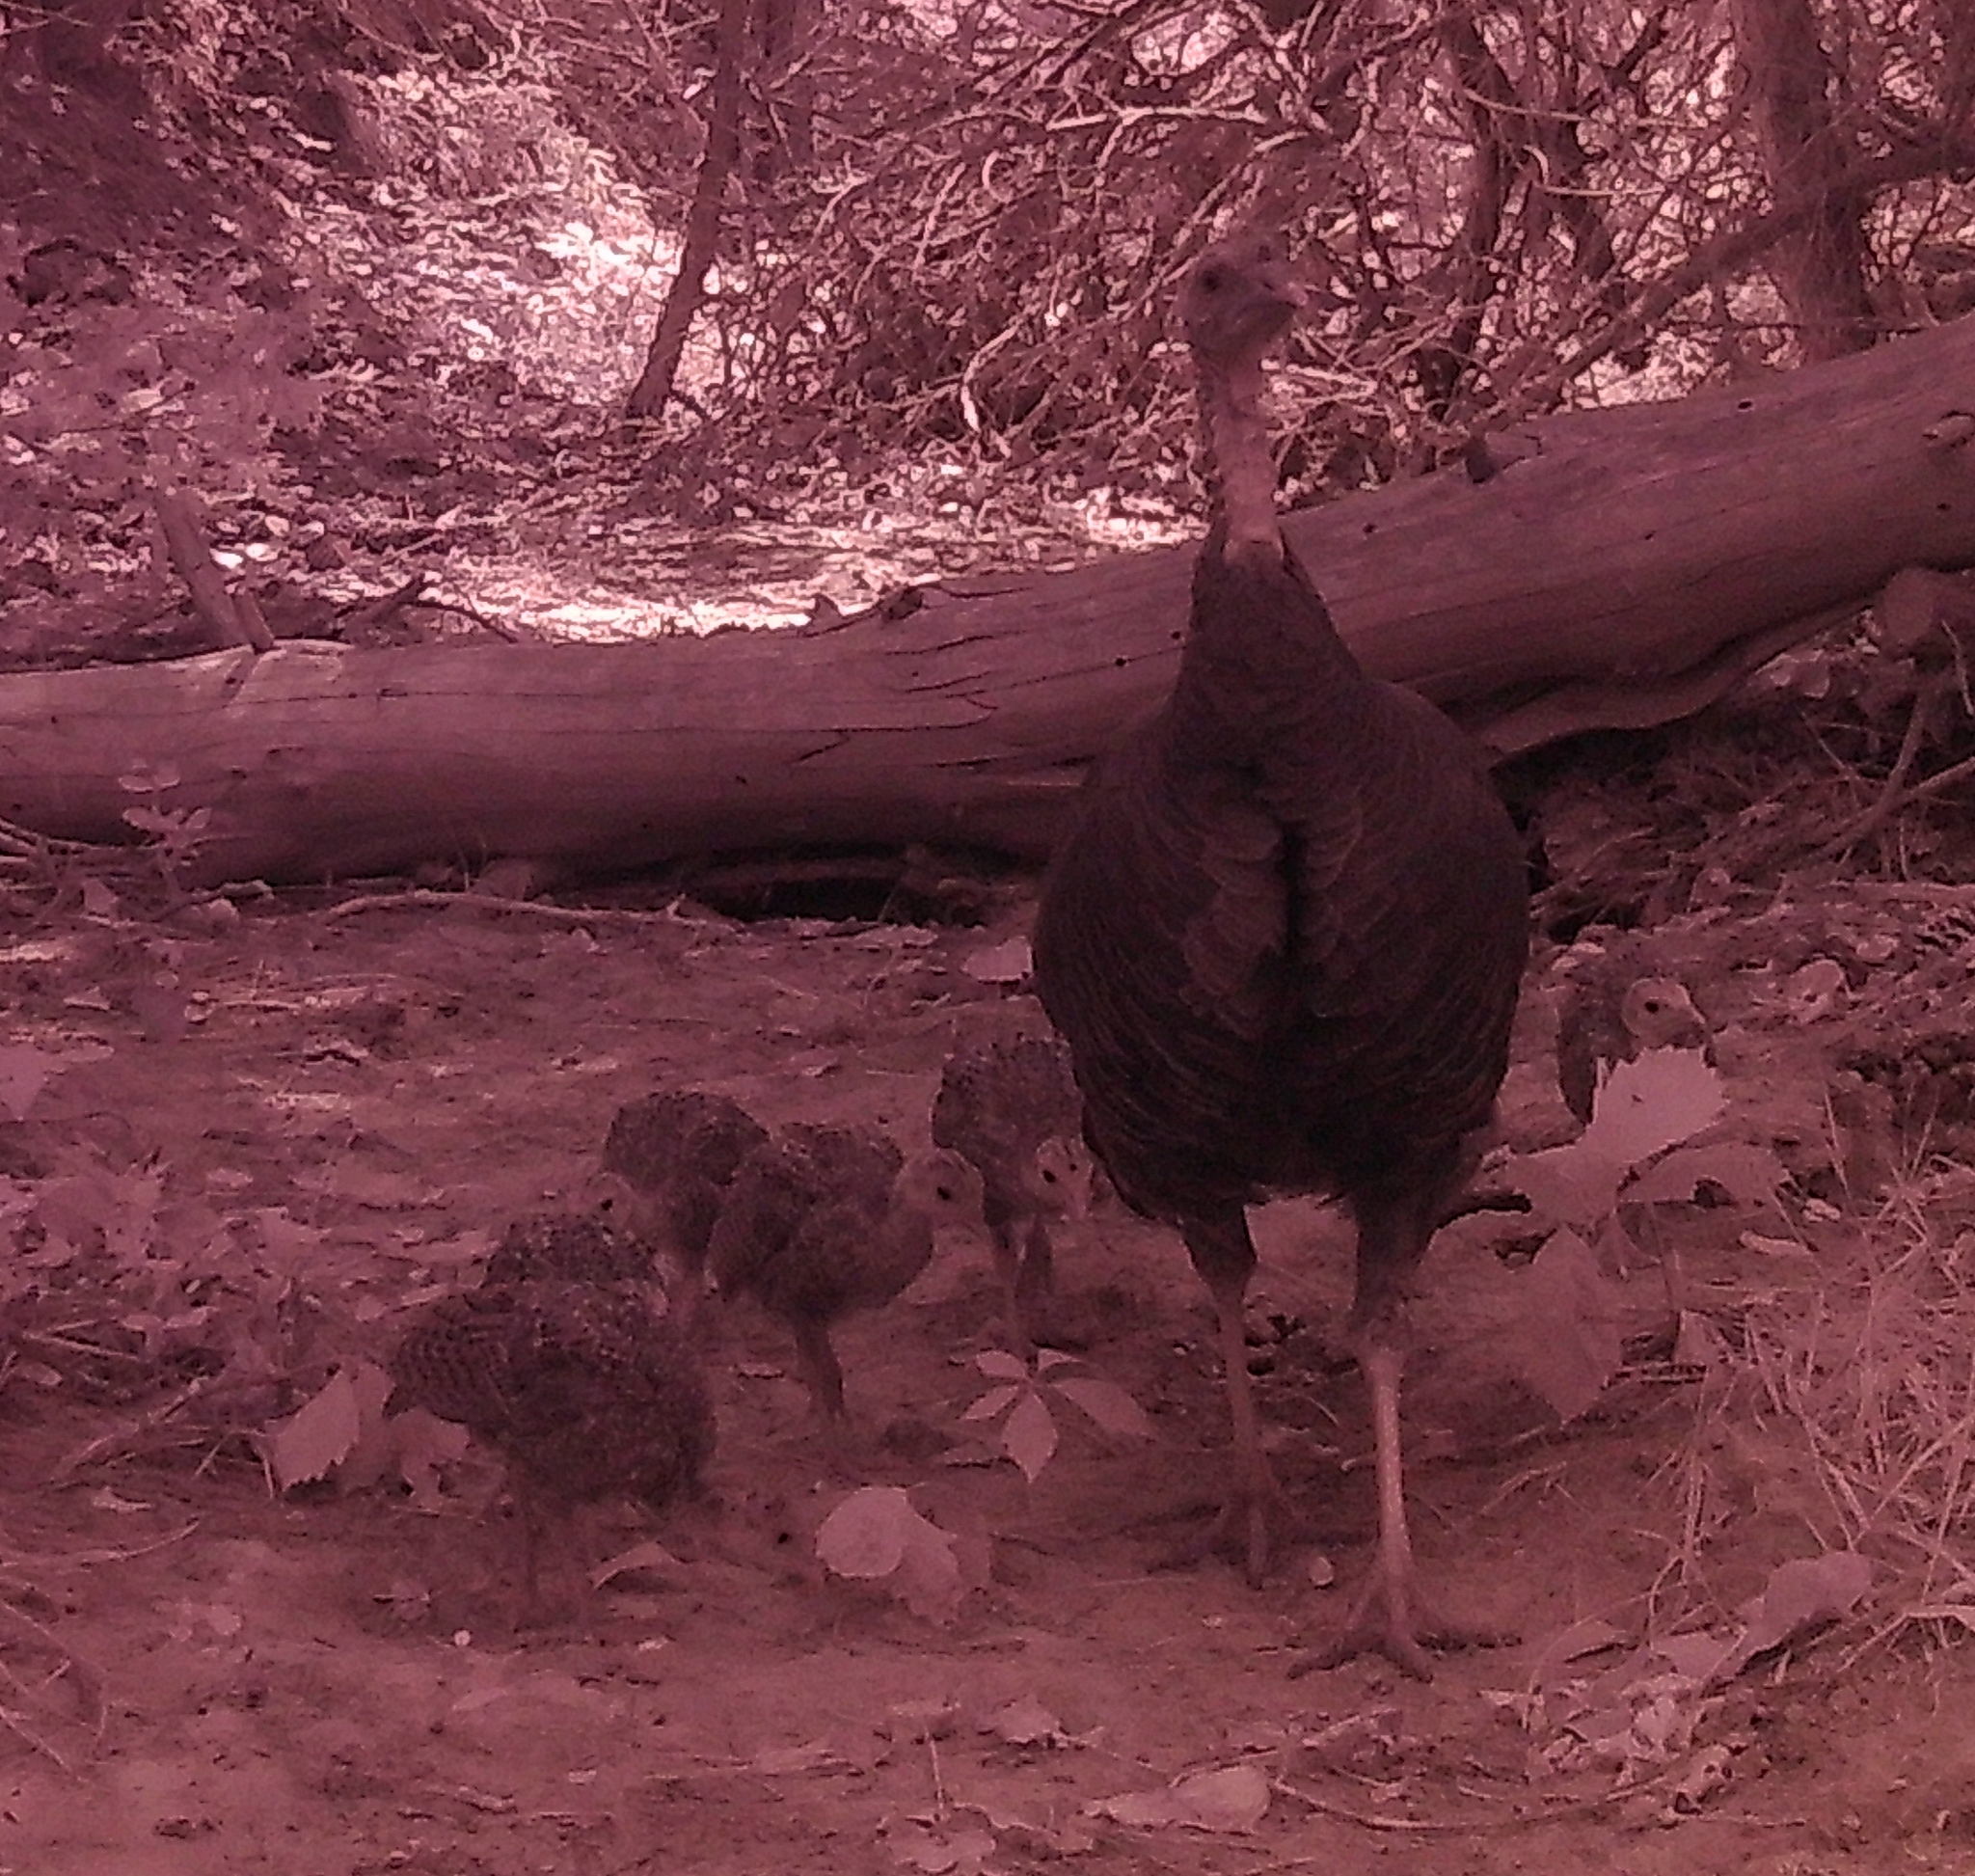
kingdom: Animalia
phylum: Chordata
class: Aves
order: Galliformes
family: Phasianidae
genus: Meleagris
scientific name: Meleagris gallopavo
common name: Wild turkey
